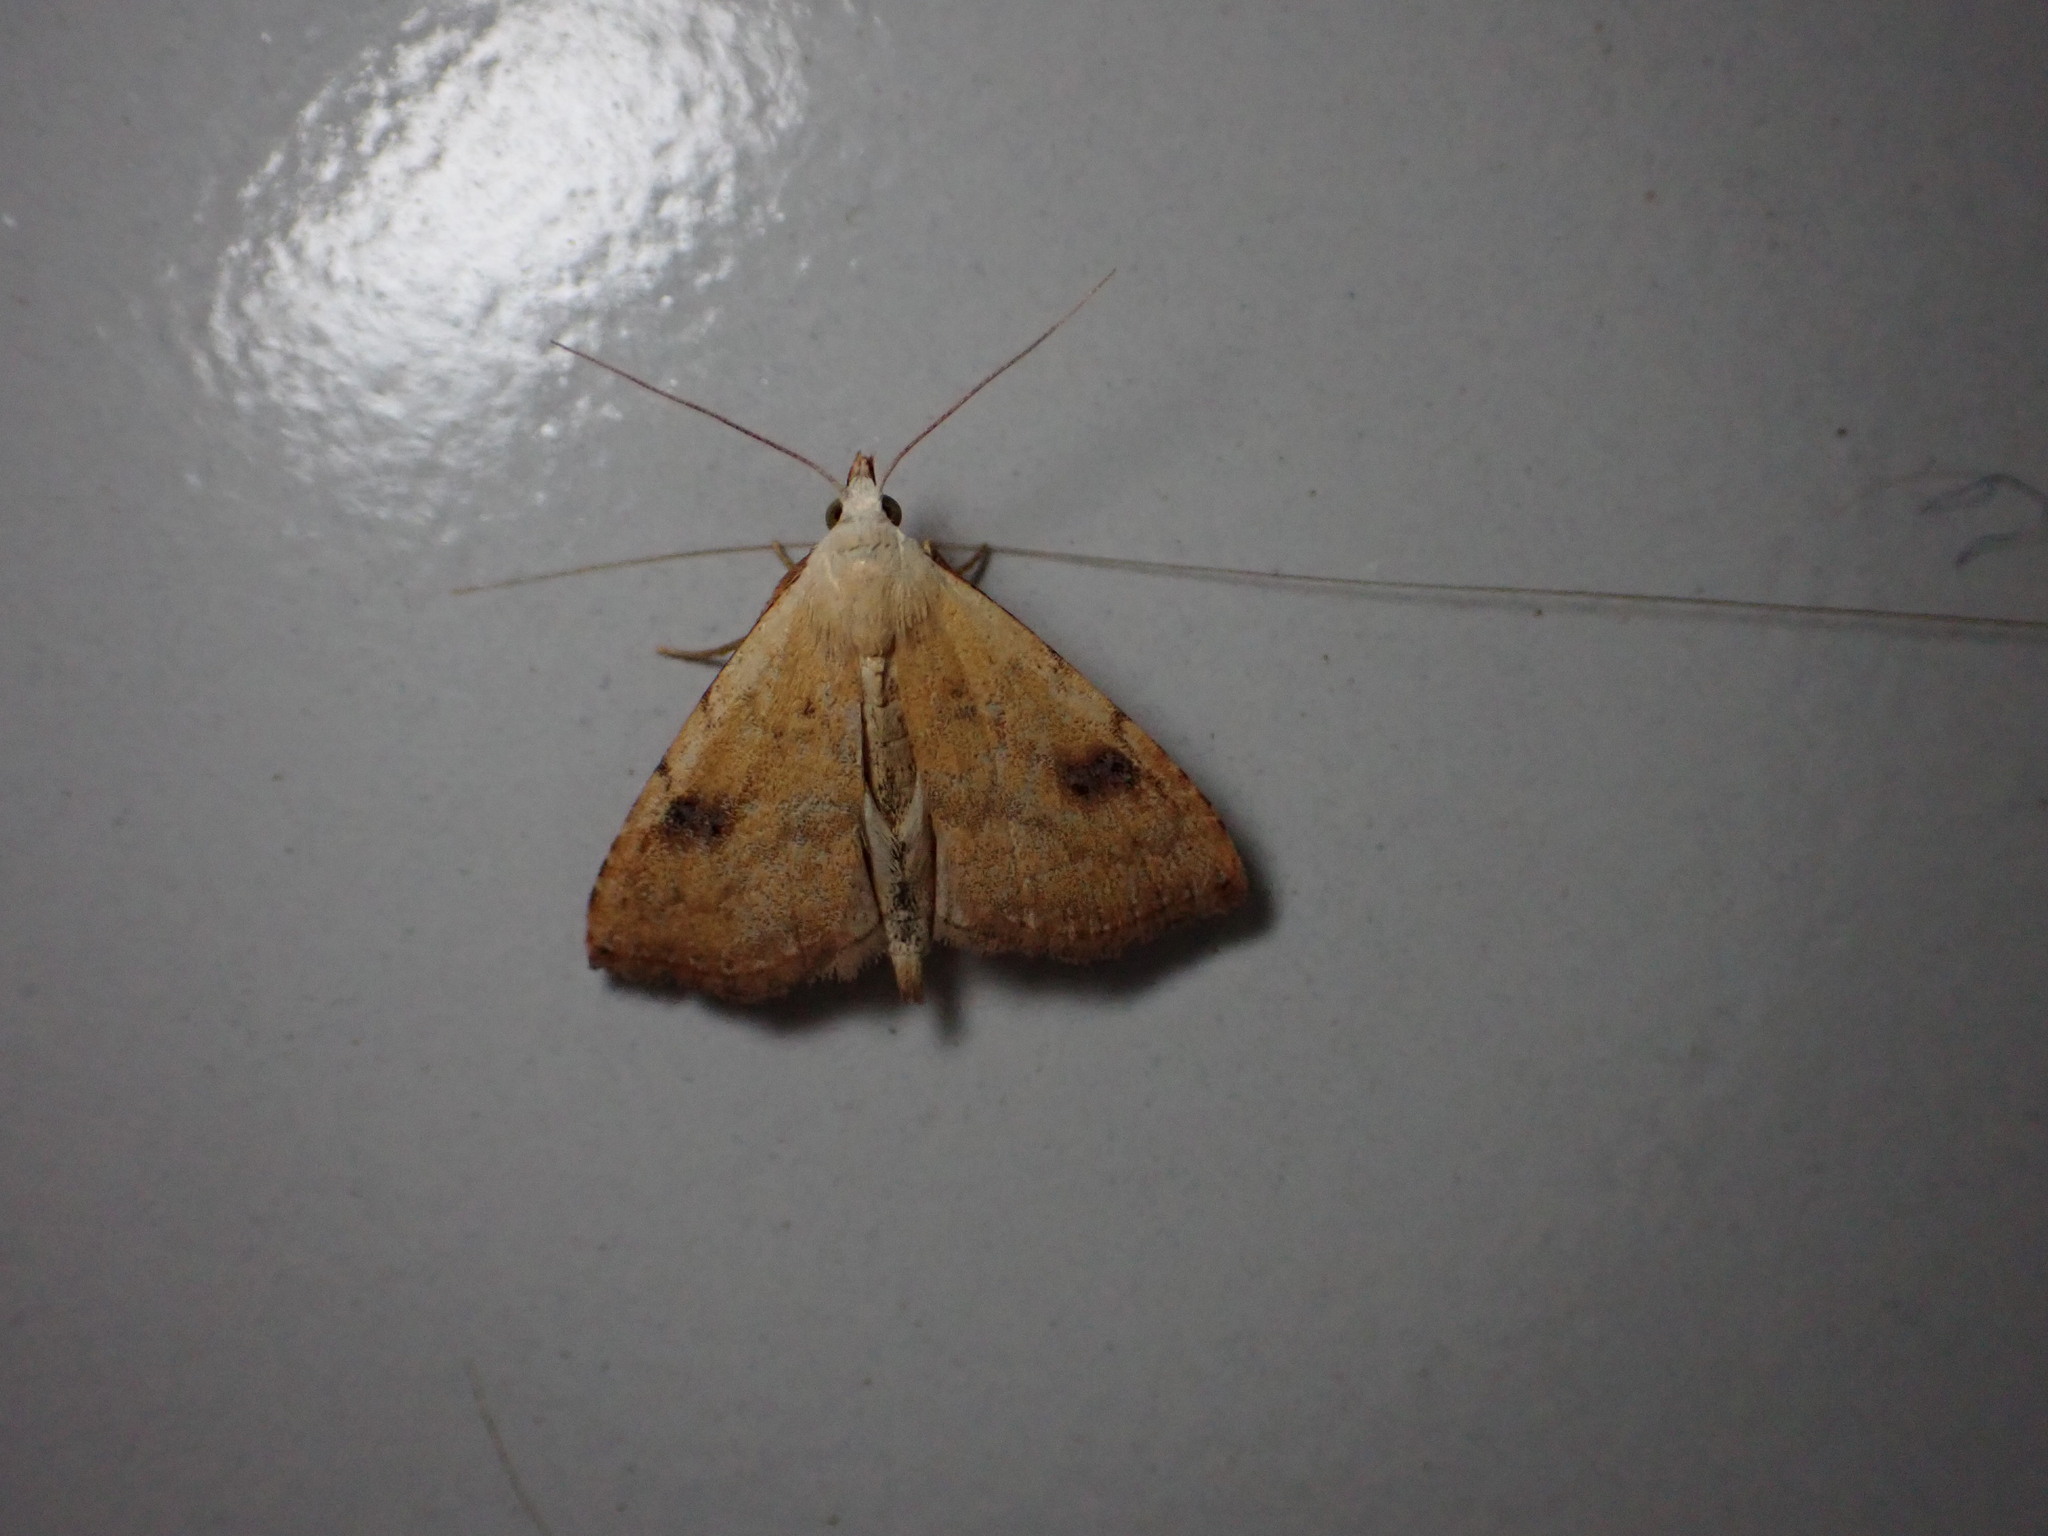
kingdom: Animalia
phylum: Arthropoda
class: Insecta
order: Lepidoptera
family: Erebidae
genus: Rivula
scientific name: Rivula sericealis
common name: Straw dot
